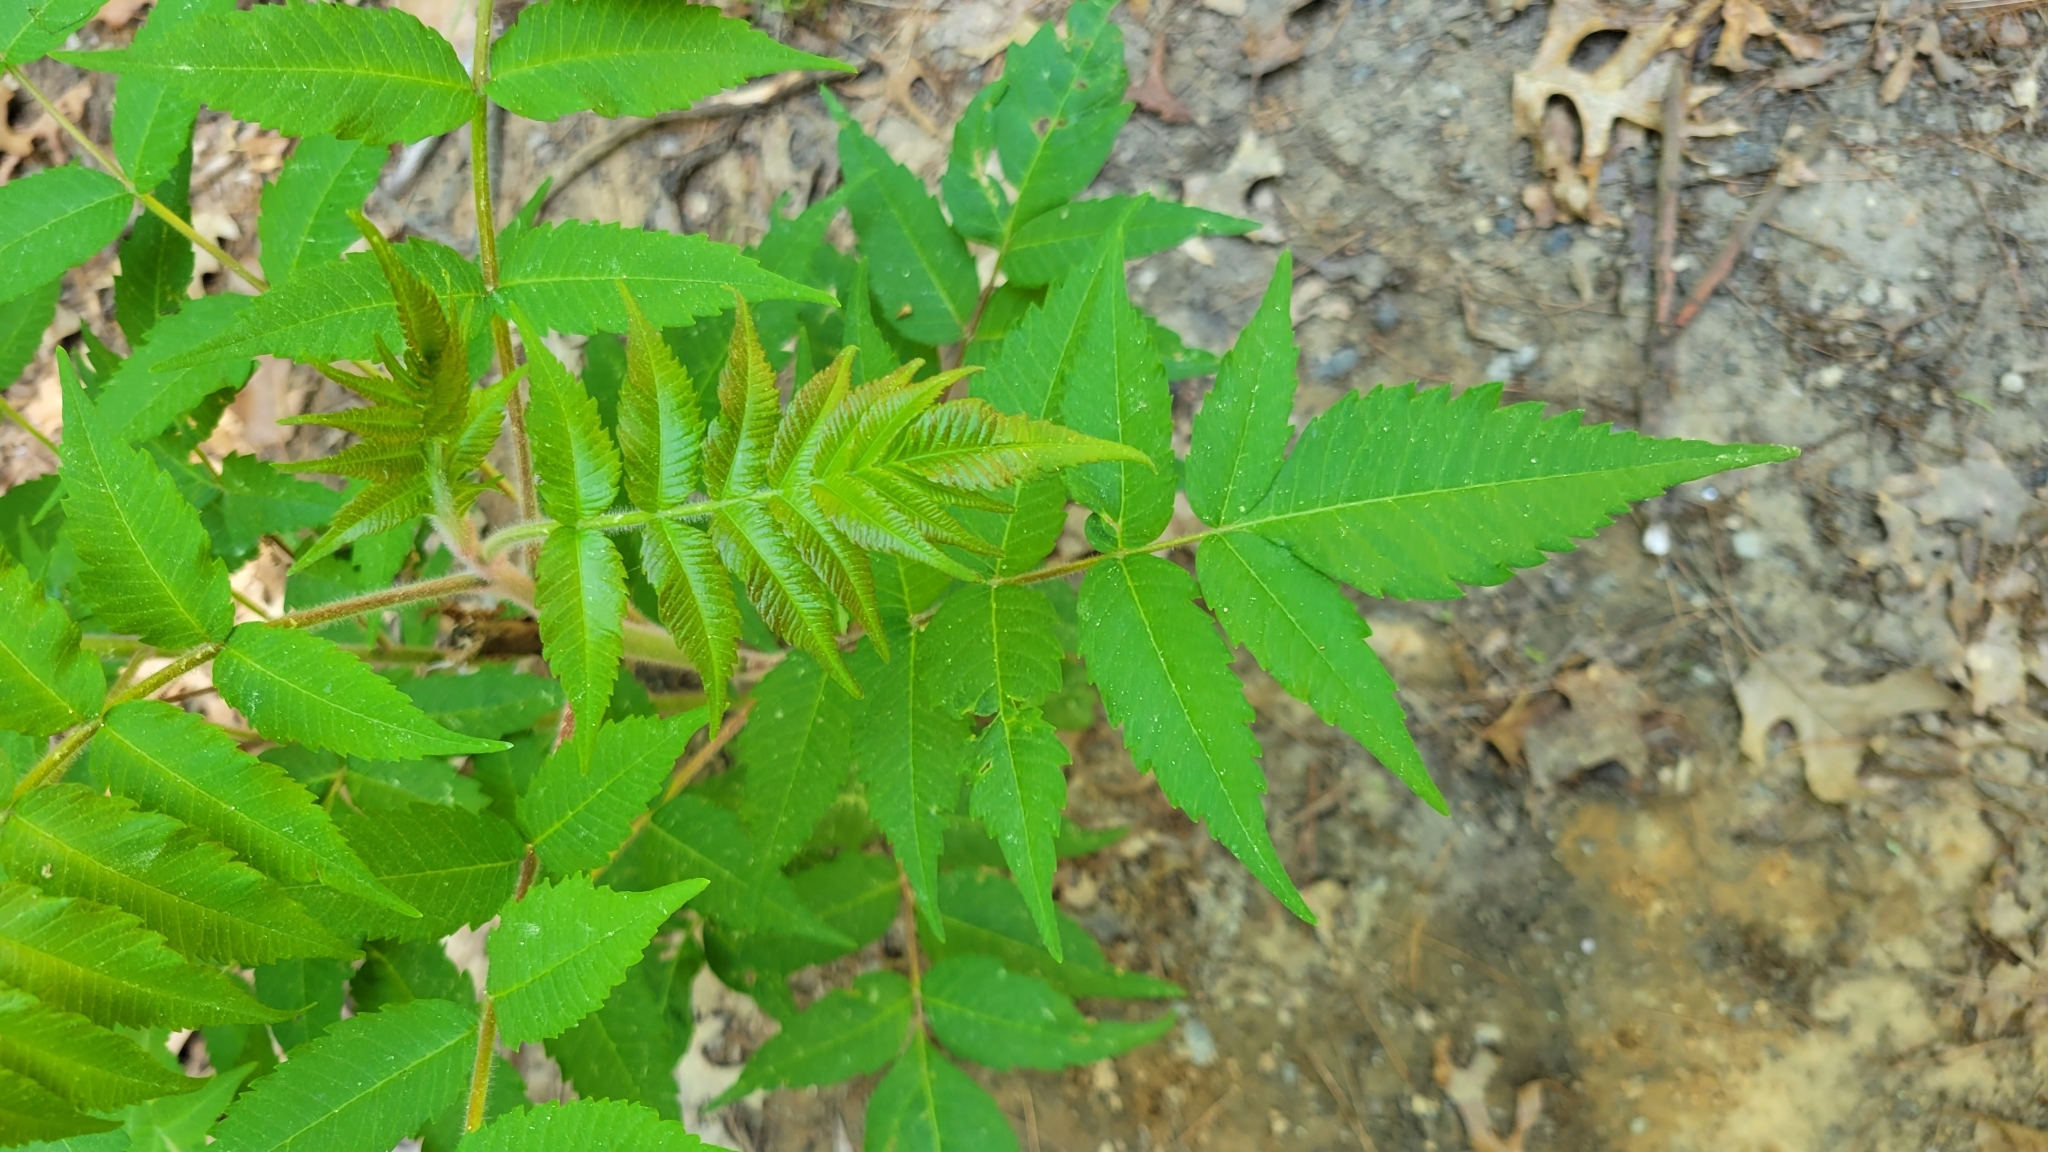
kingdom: Plantae
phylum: Tracheophyta
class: Magnoliopsida
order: Sapindales
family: Anacardiaceae
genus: Rhus
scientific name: Rhus typhina
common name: Staghorn sumac
